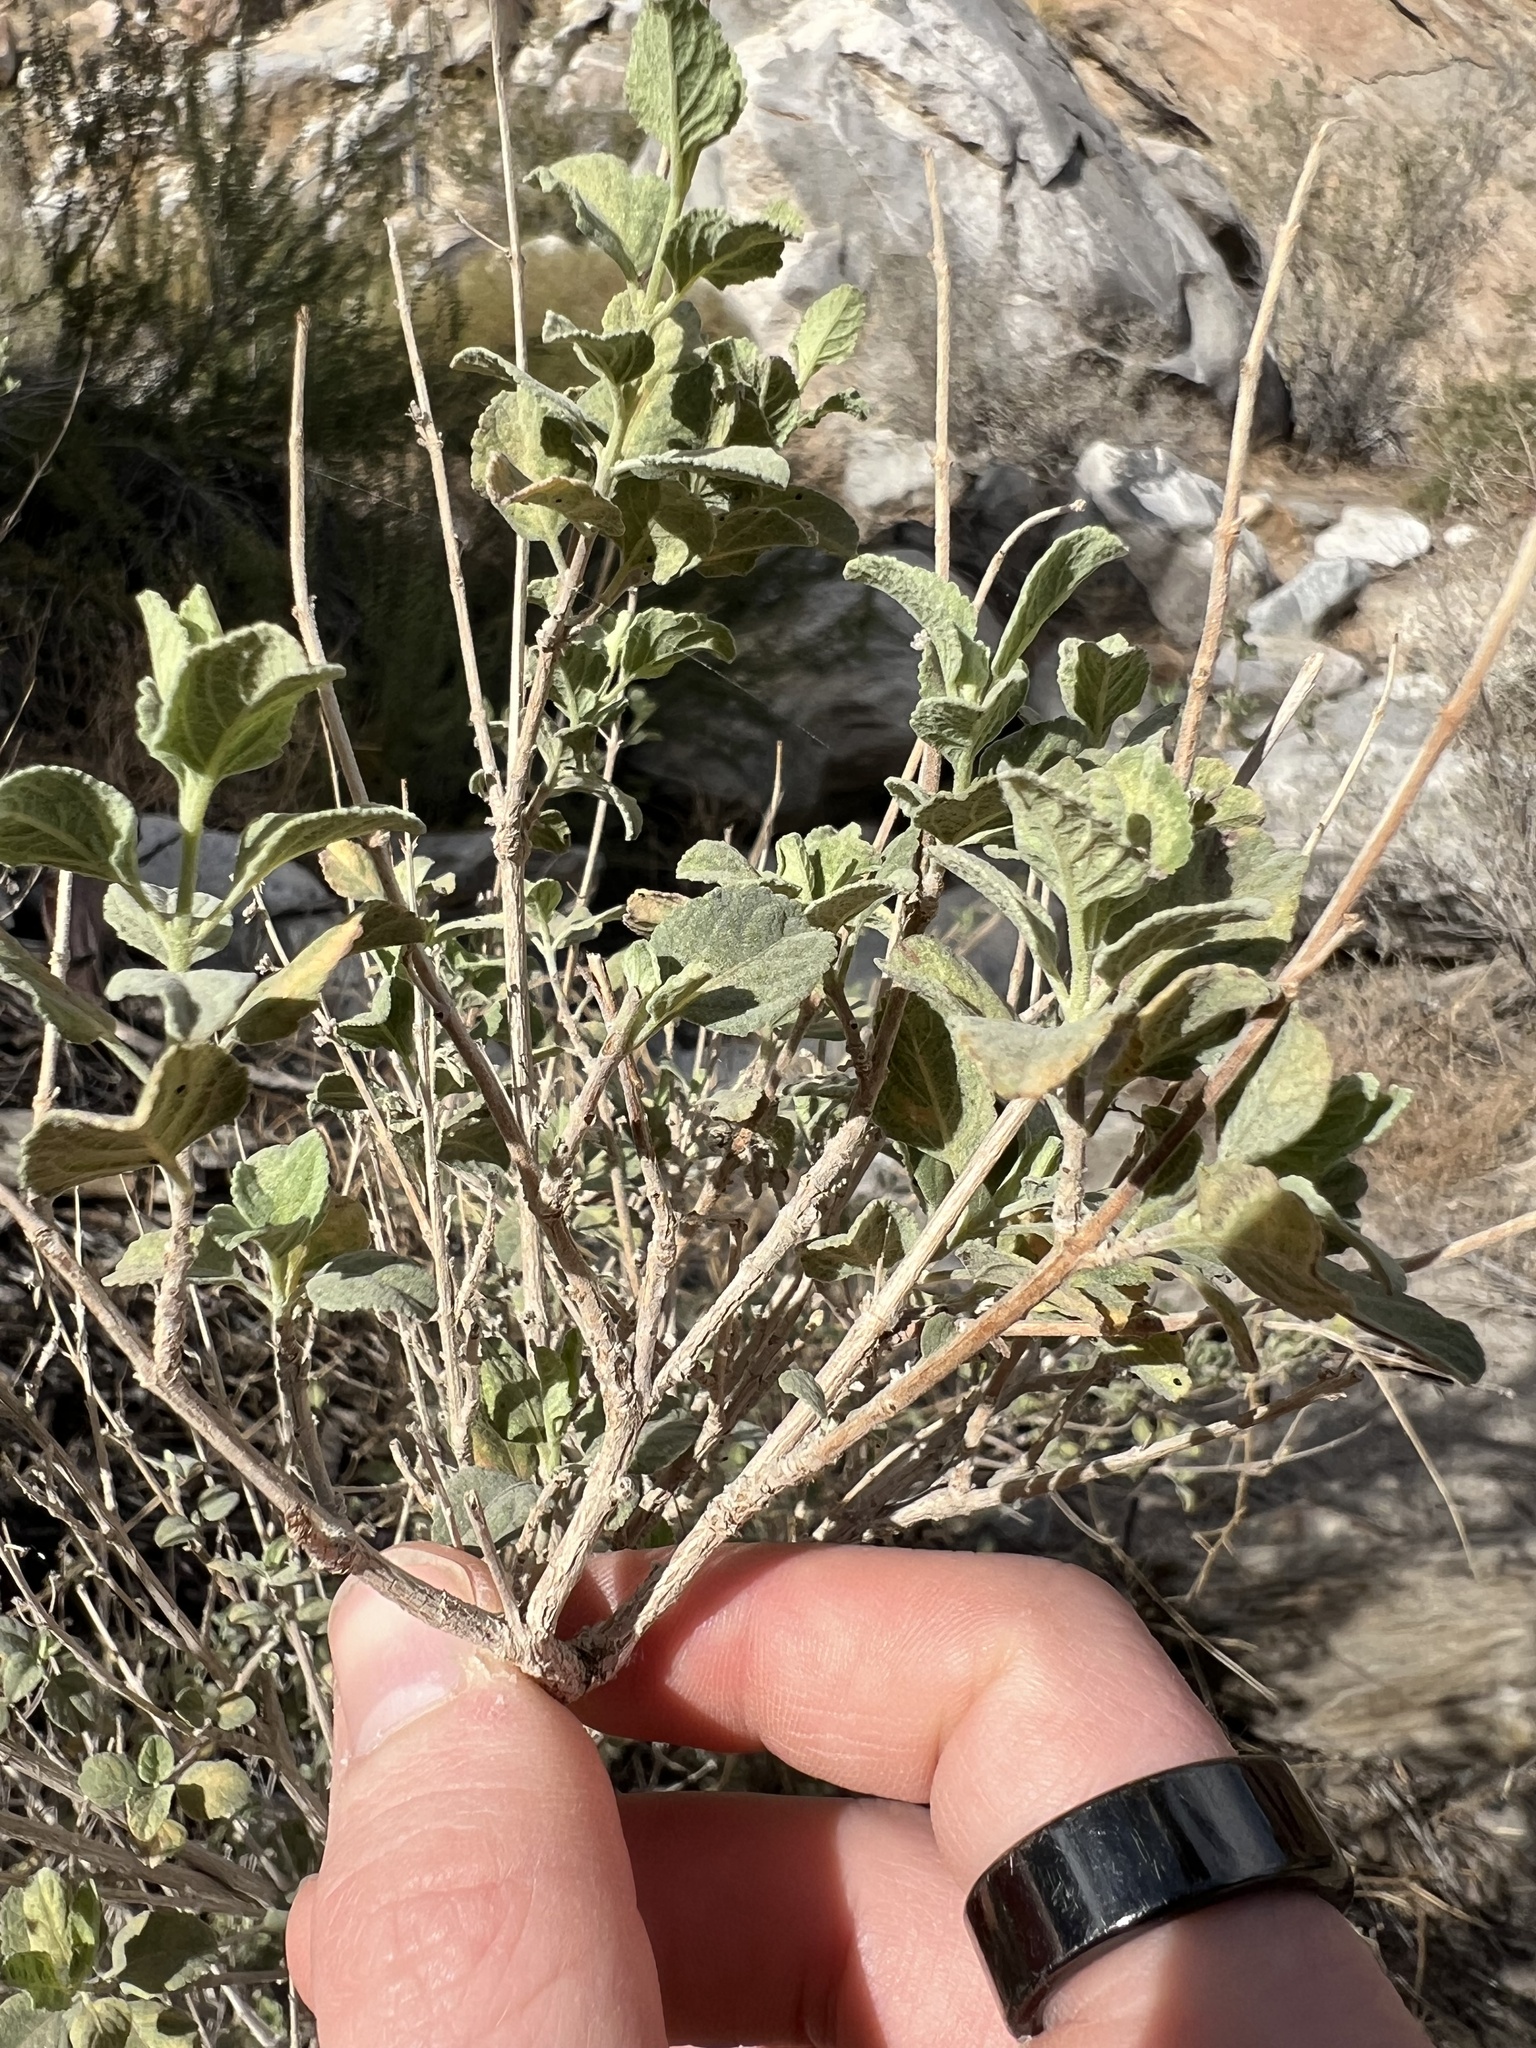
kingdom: Plantae
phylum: Tracheophyta
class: Magnoliopsida
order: Lamiales
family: Lamiaceae
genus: Condea
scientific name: Condea emoryi
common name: Chia
